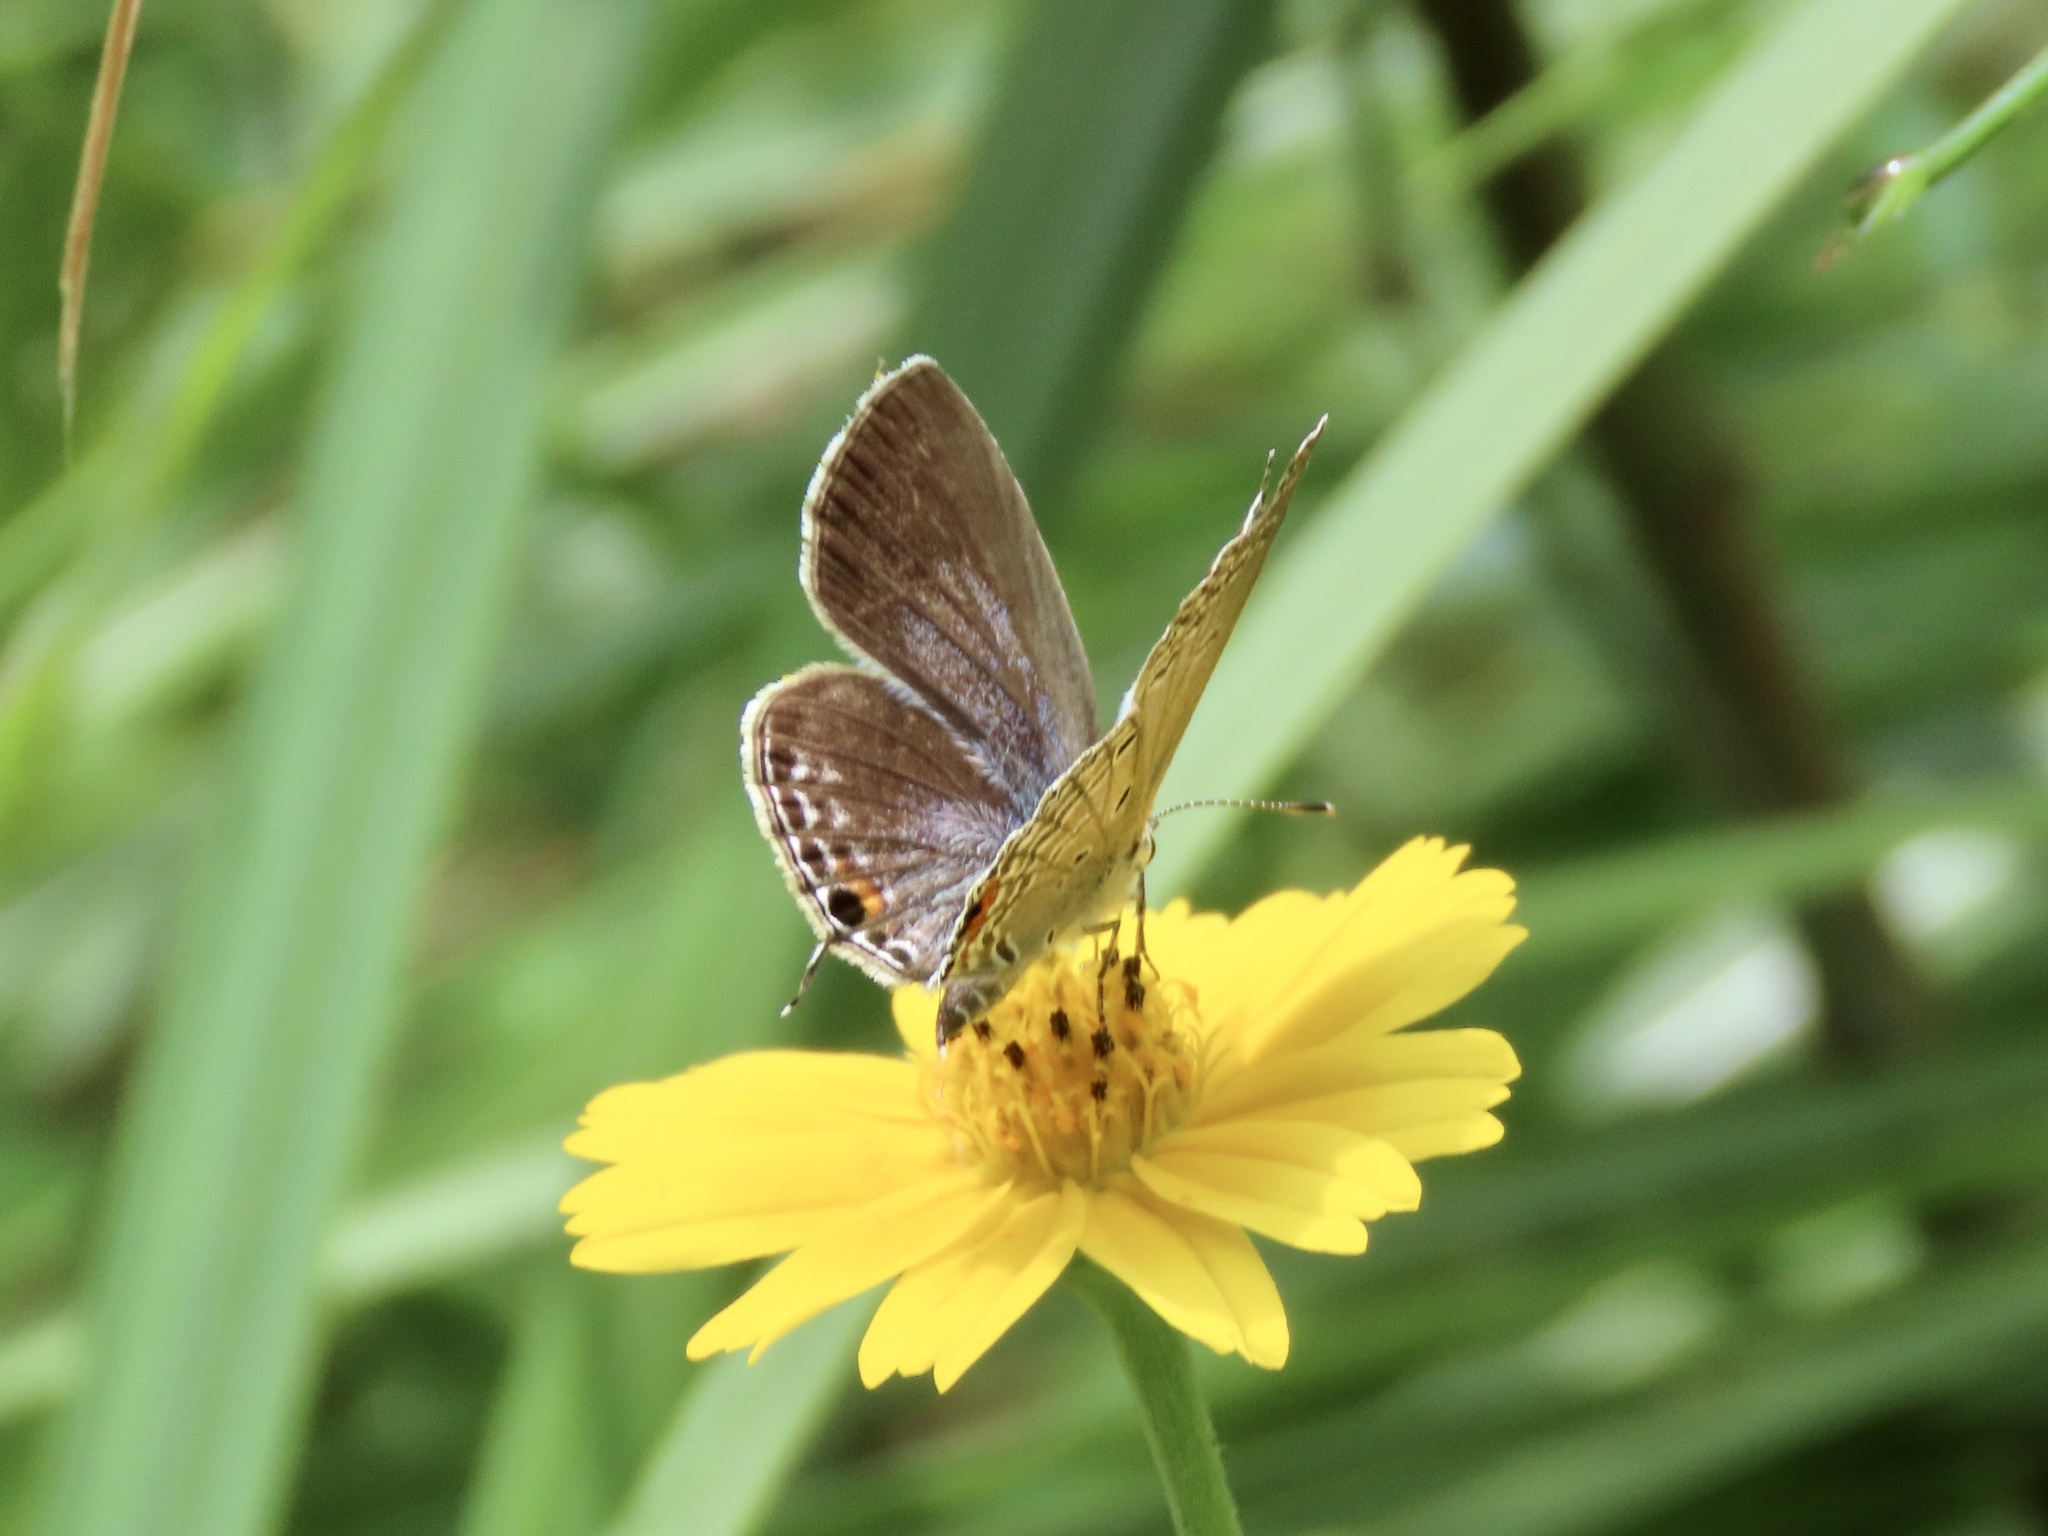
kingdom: Animalia
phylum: Arthropoda
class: Insecta
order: Lepidoptera
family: Lycaenidae
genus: Luthrodes
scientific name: Luthrodes pandava
